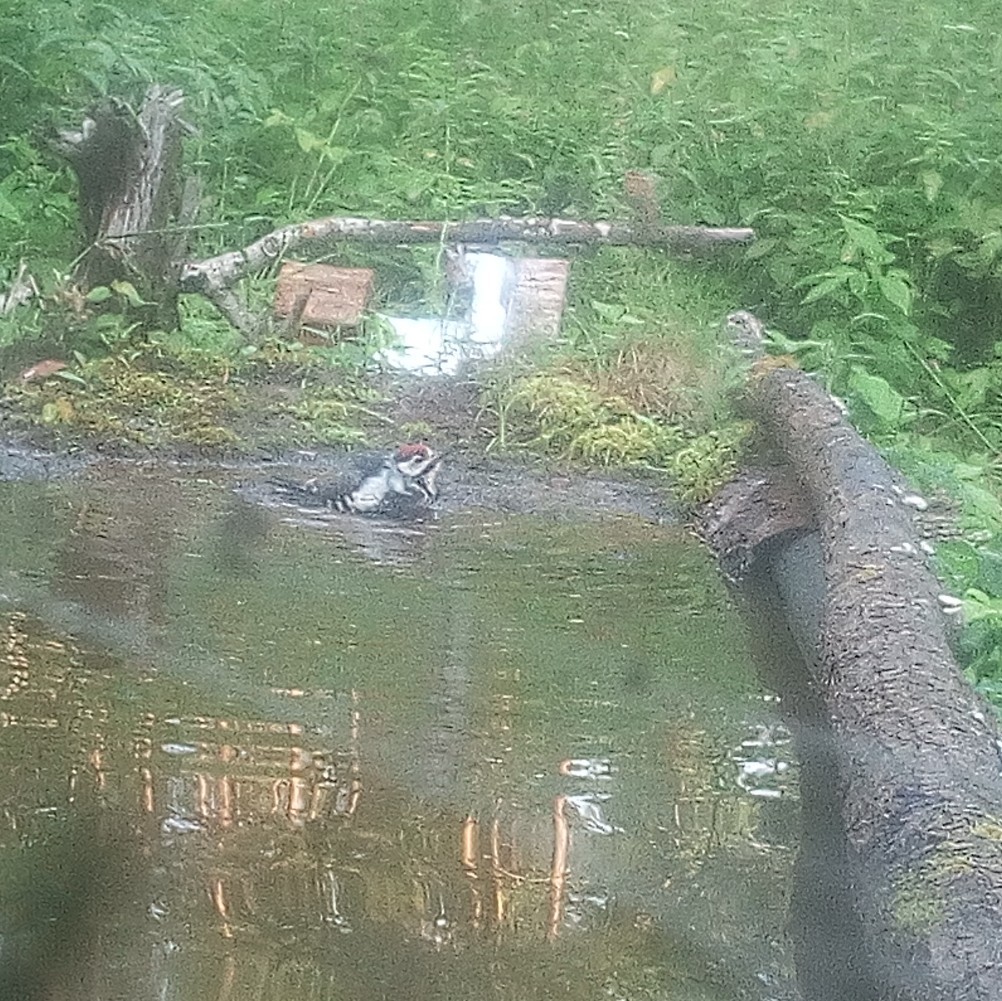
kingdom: Animalia
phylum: Chordata
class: Aves
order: Piciformes
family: Picidae
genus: Dendrocopos
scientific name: Dendrocopos major
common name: Great spotted woodpecker
